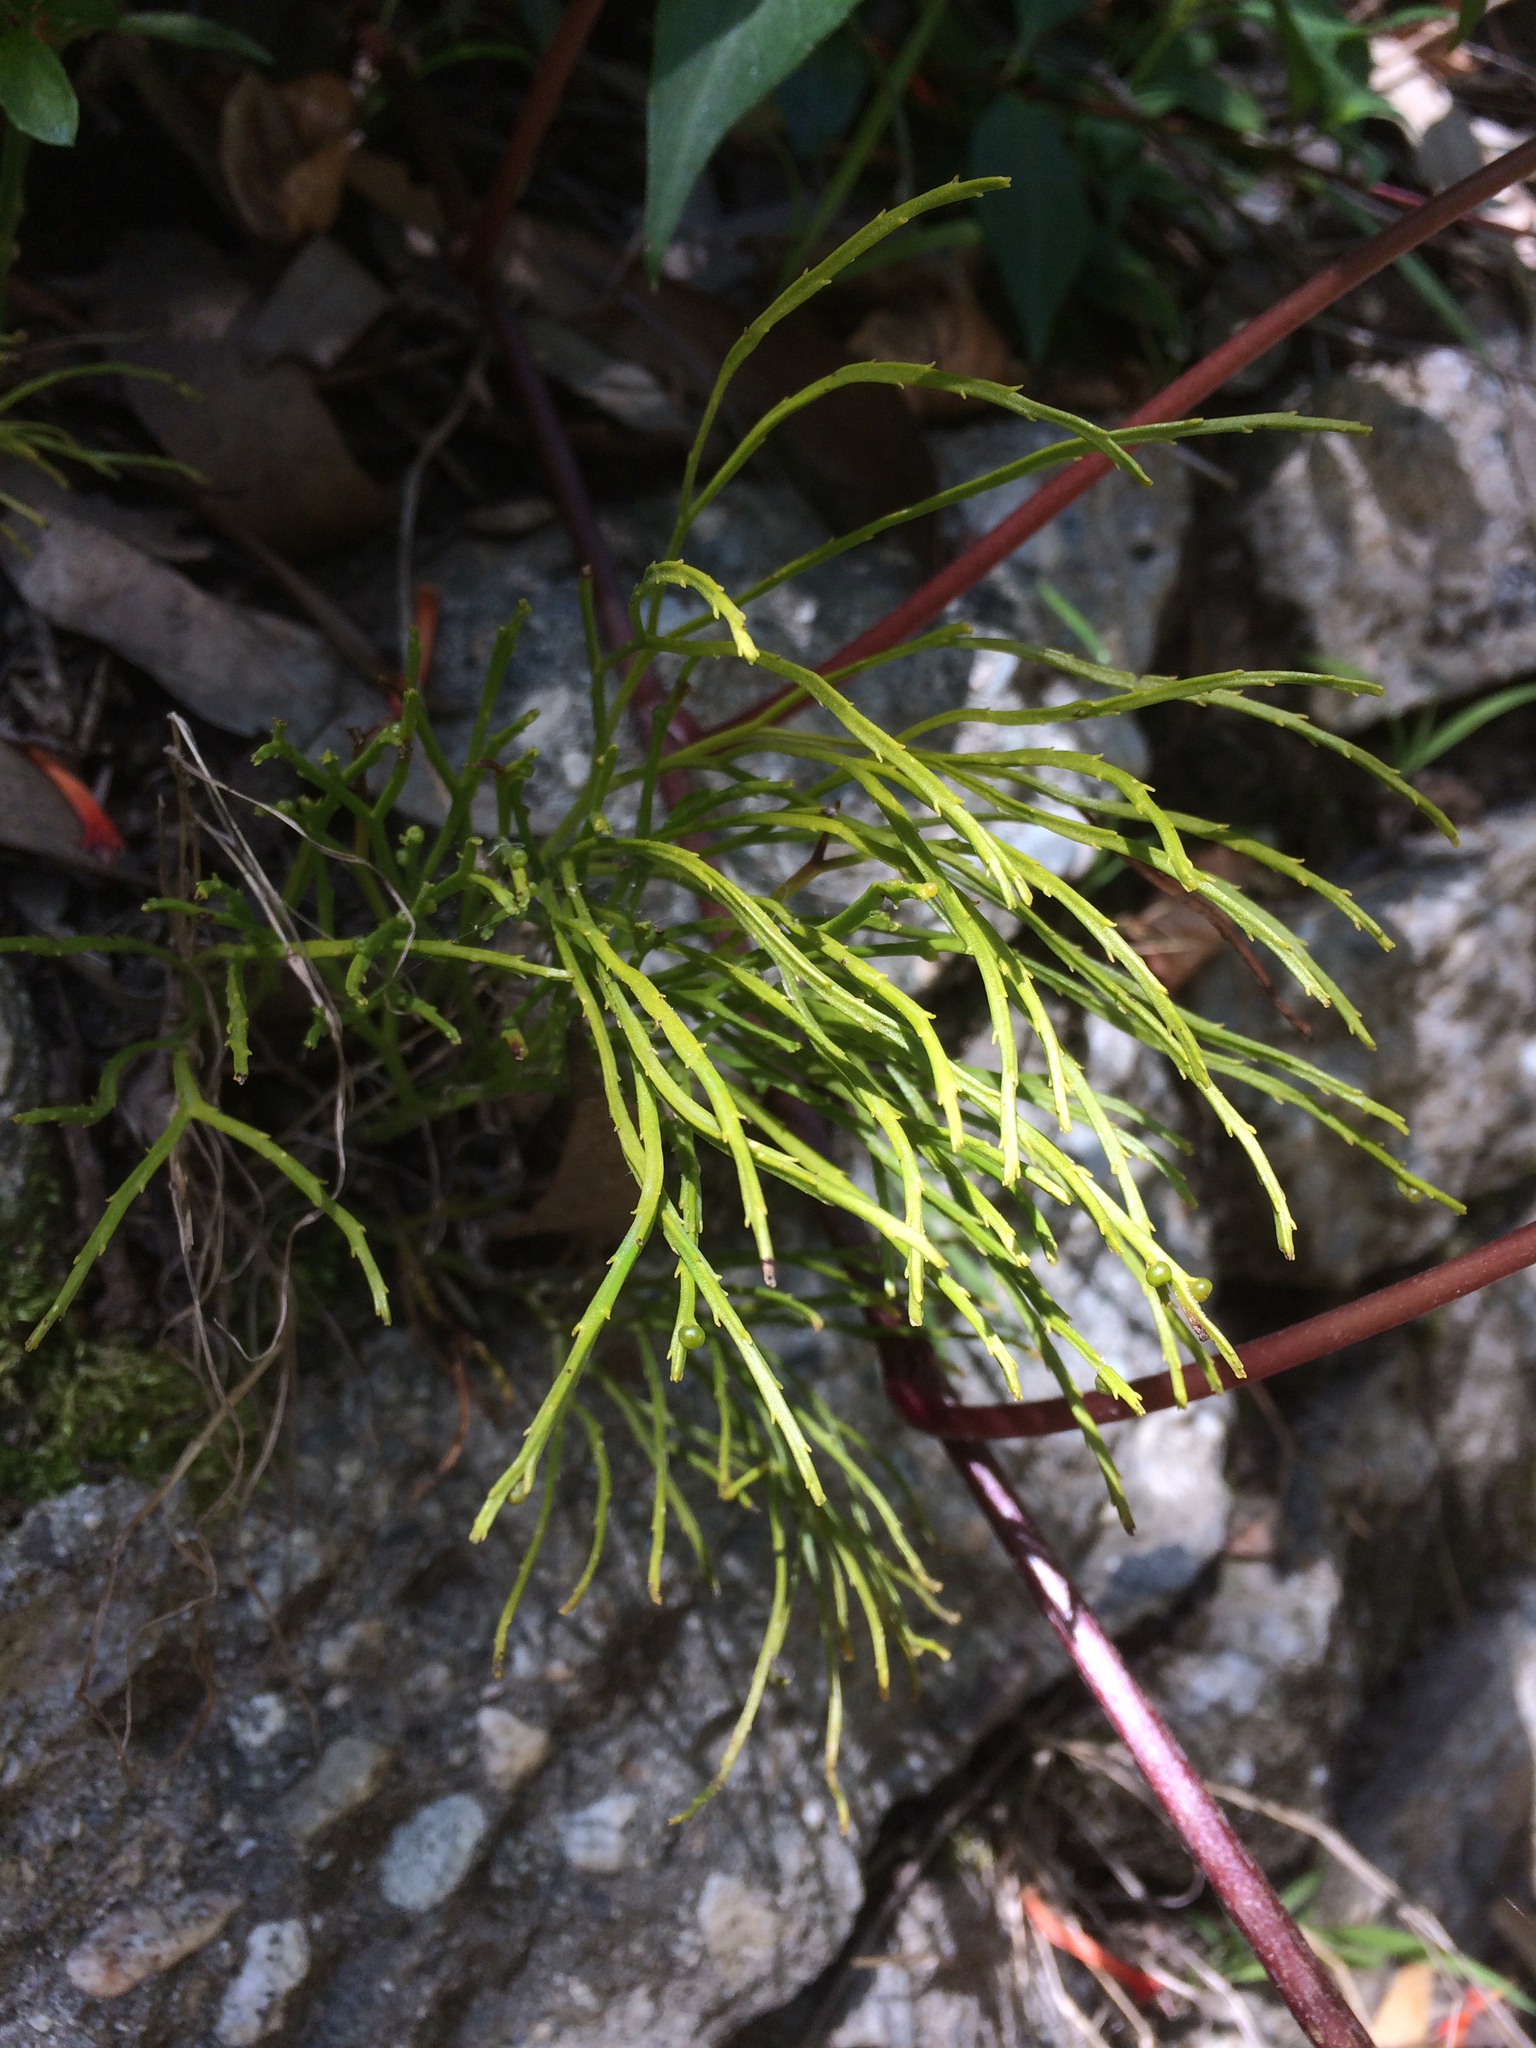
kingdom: Plantae
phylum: Tracheophyta
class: Polypodiopsida
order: Psilotales
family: Psilotaceae
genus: Psilotum
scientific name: Psilotum nudum
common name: Skeleton fork fern
